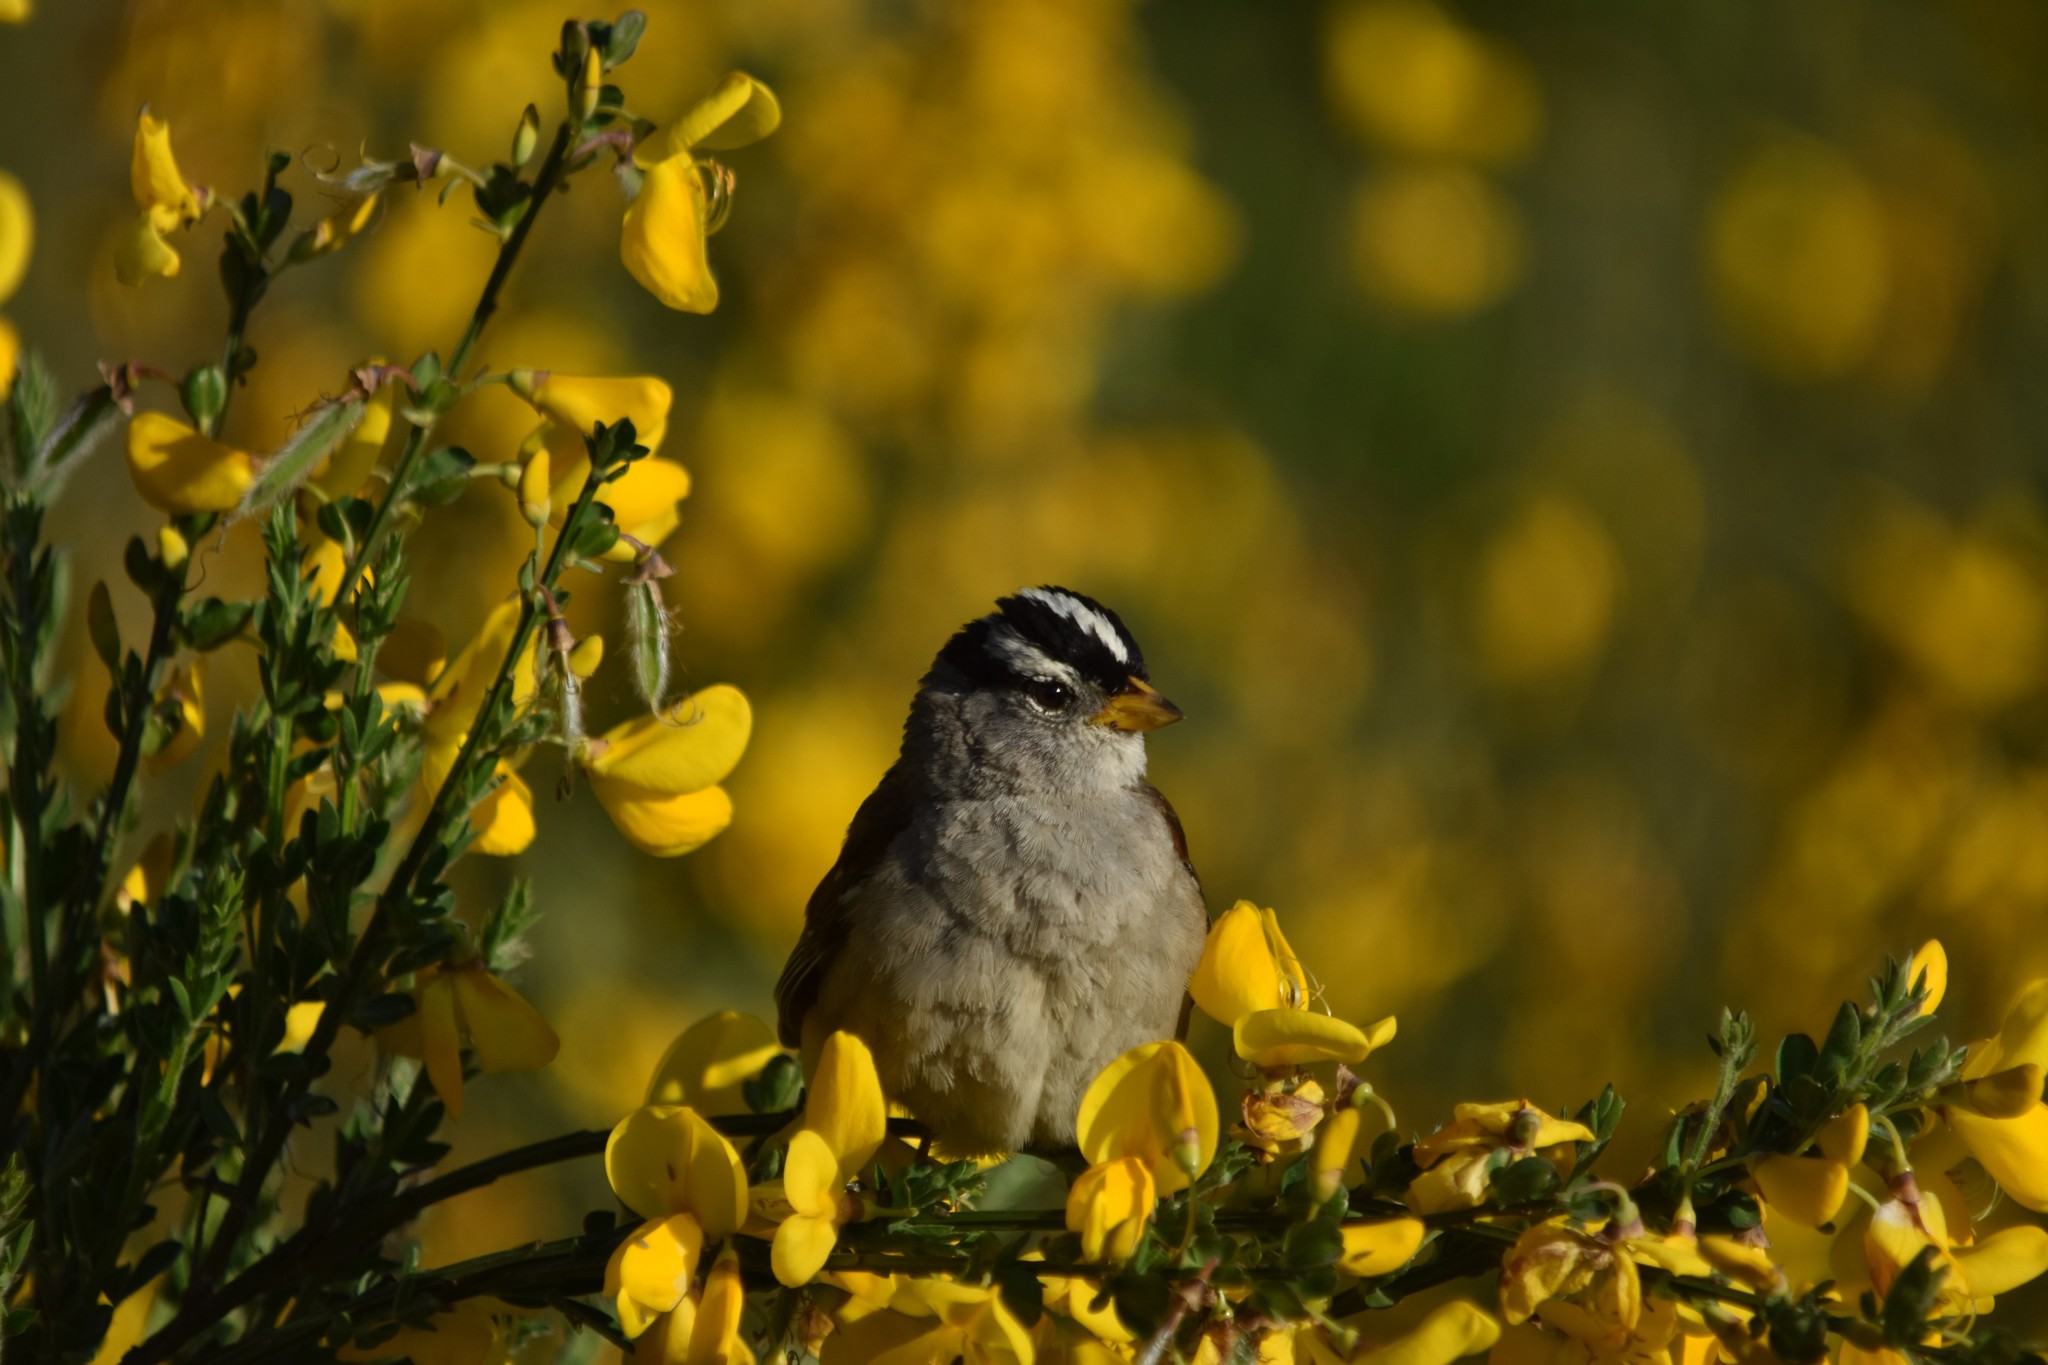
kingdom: Animalia
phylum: Chordata
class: Aves
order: Passeriformes
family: Passerellidae
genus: Zonotrichia
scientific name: Zonotrichia leucophrys
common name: White-crowned sparrow
